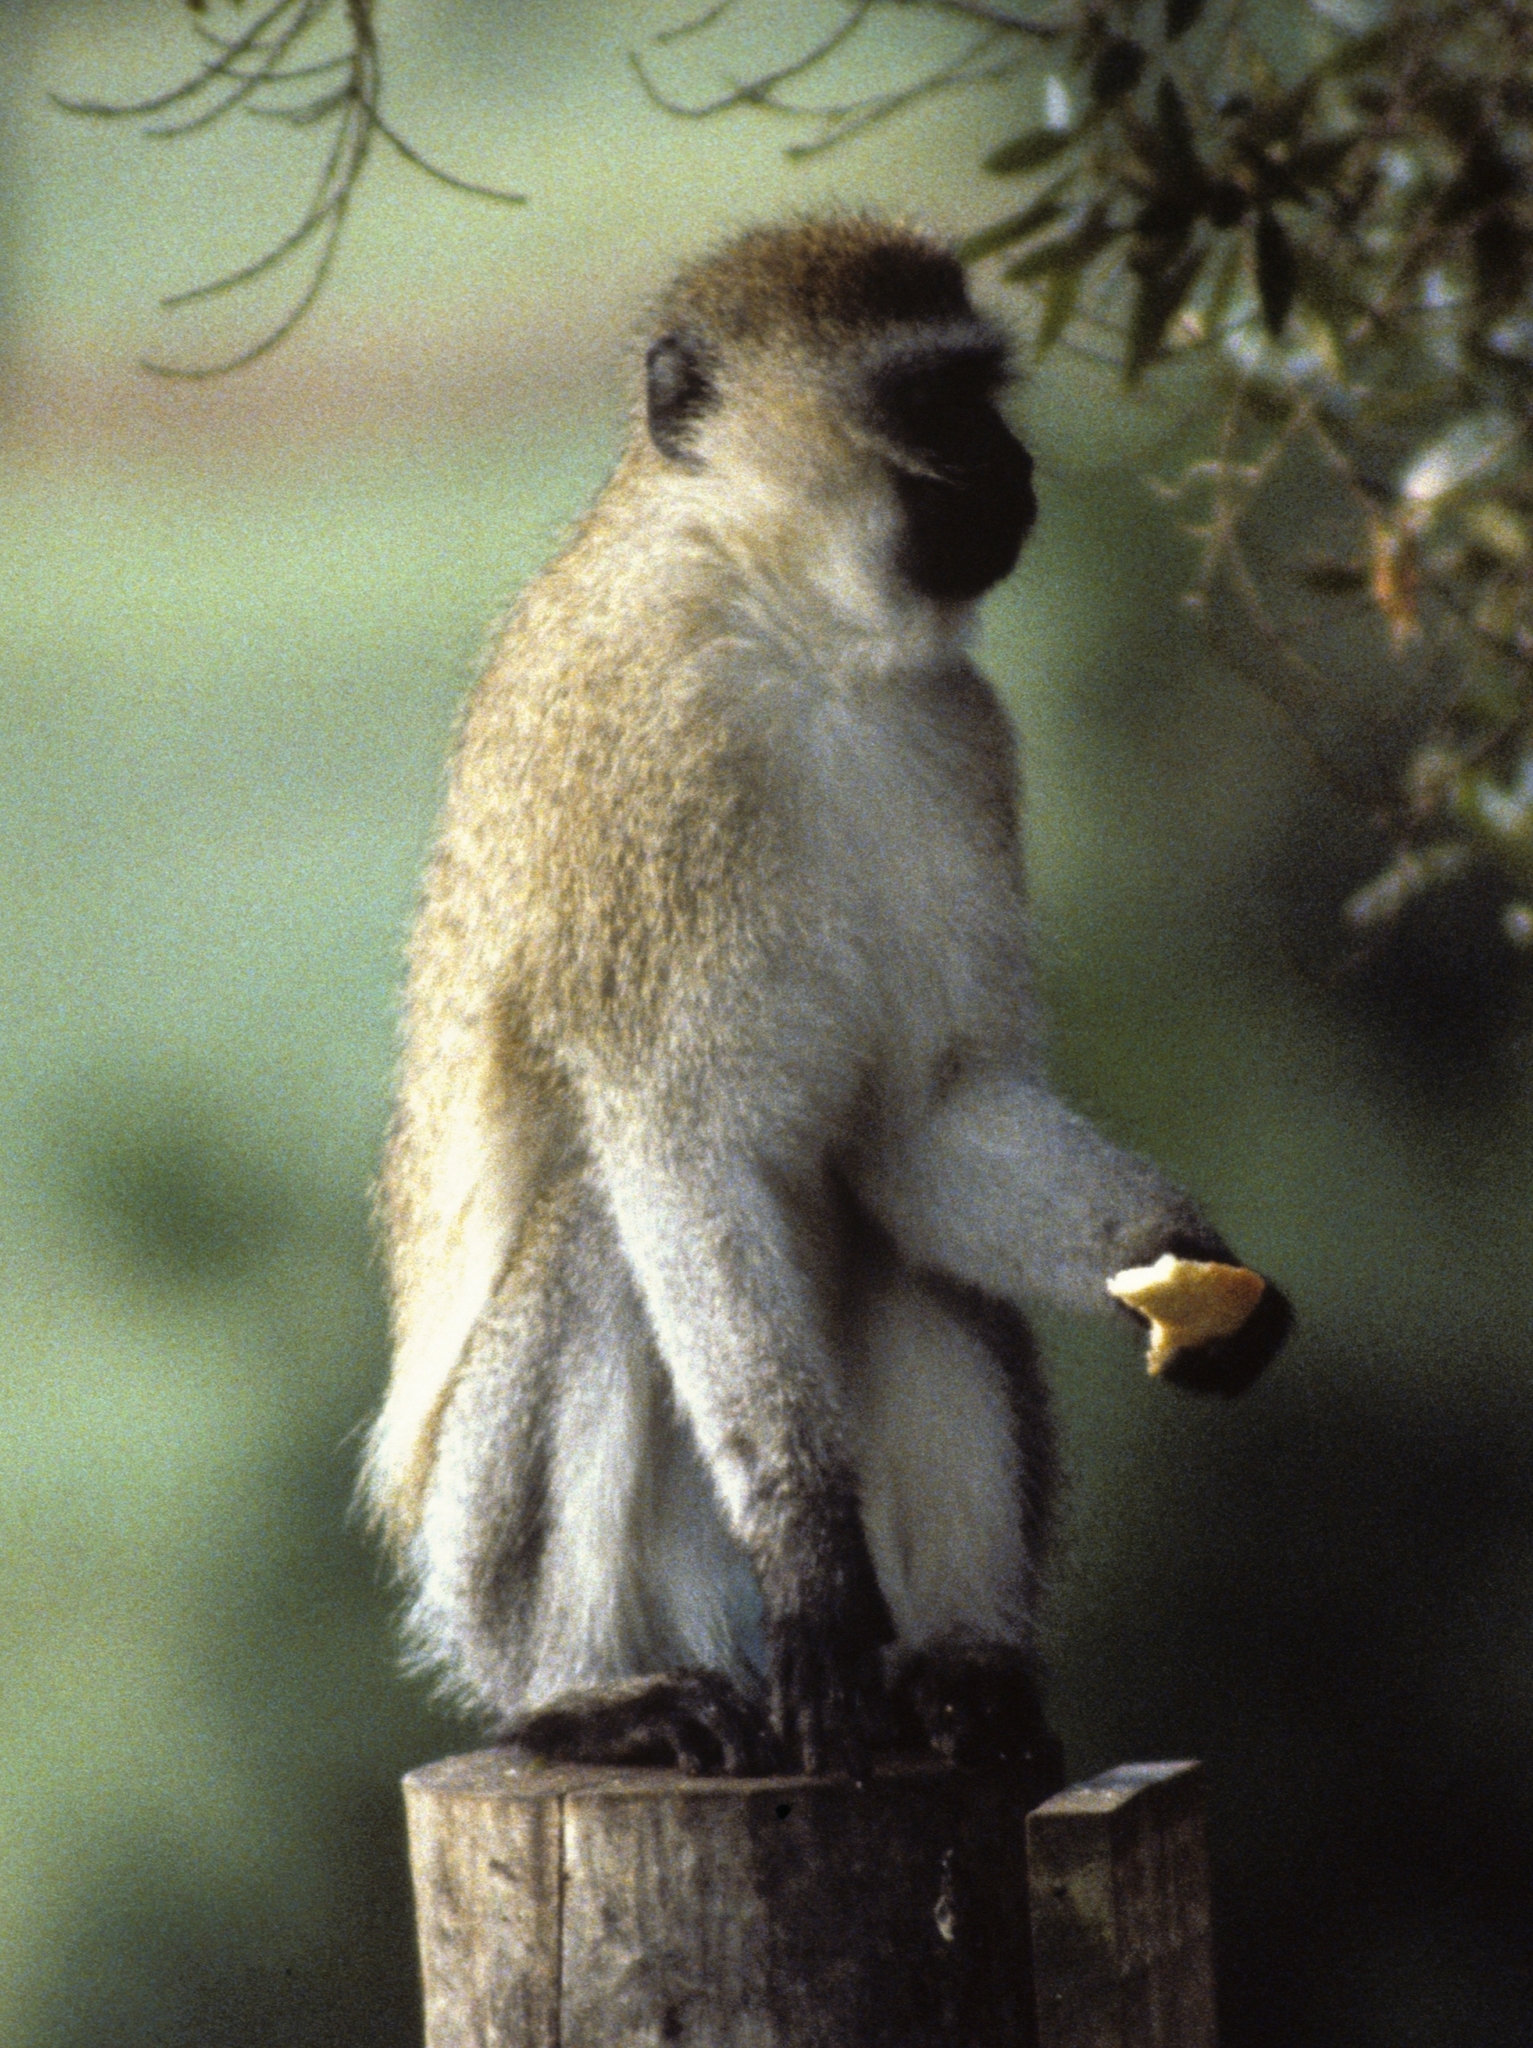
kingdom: Animalia
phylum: Chordata
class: Mammalia
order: Primates
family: Cercopithecidae
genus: Chlorocebus
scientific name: Chlorocebus pygerythrus
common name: Vervet monkey
